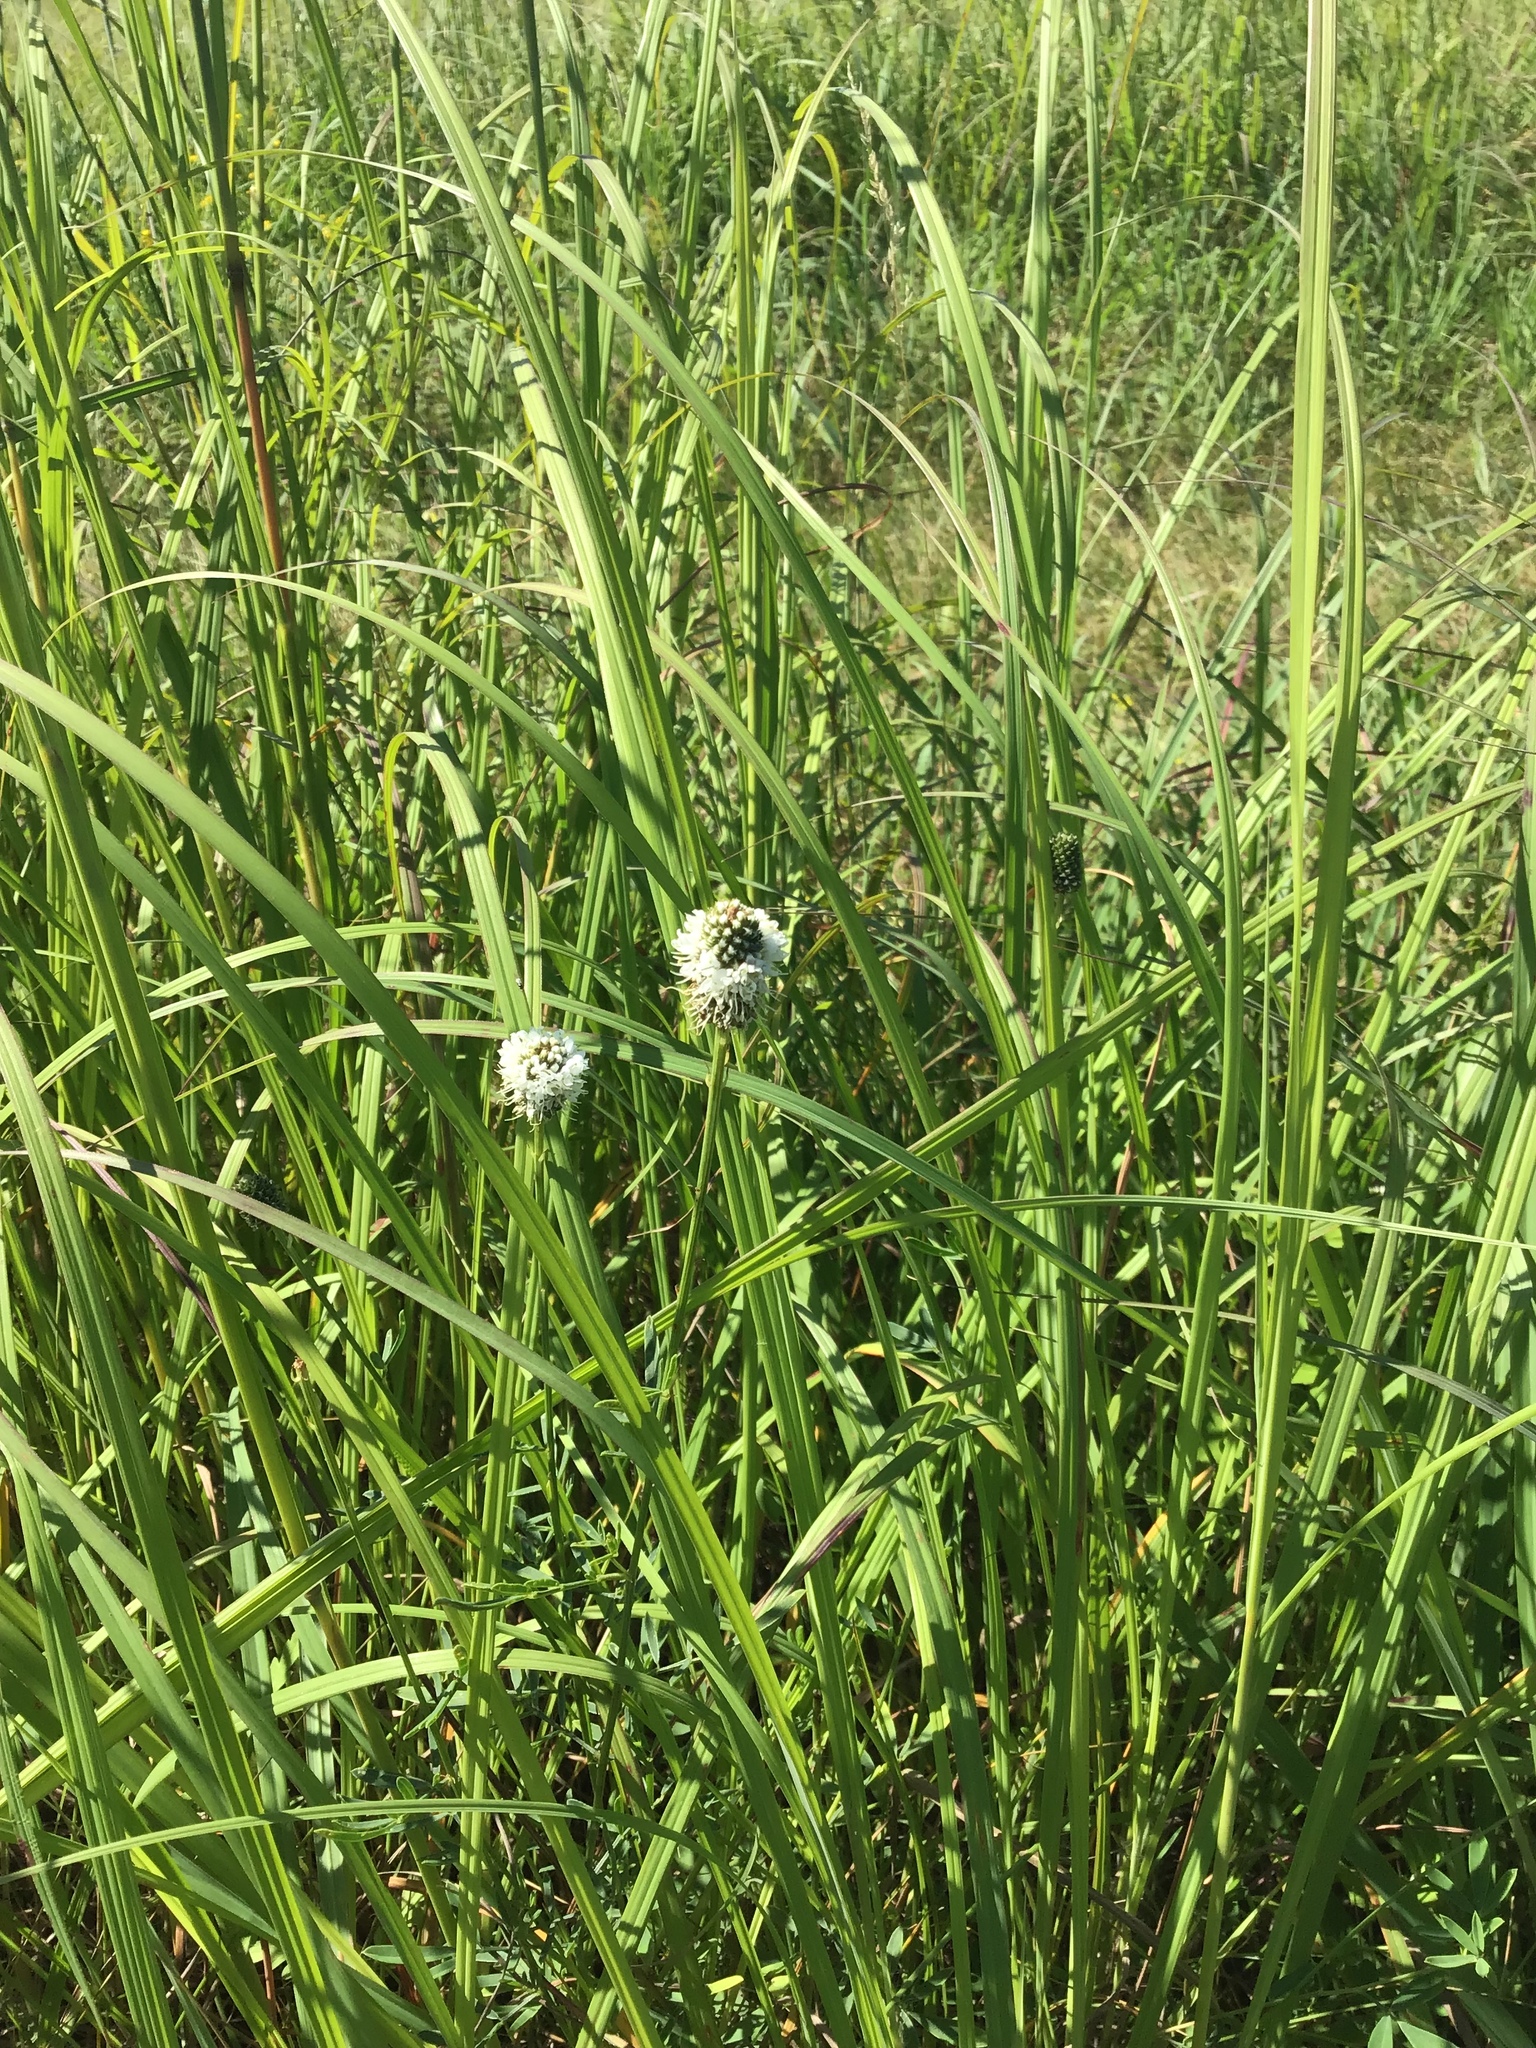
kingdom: Plantae
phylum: Tracheophyta
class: Magnoliopsida
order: Fabales
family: Fabaceae
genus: Dalea
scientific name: Dalea candida
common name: White prairie-clover
